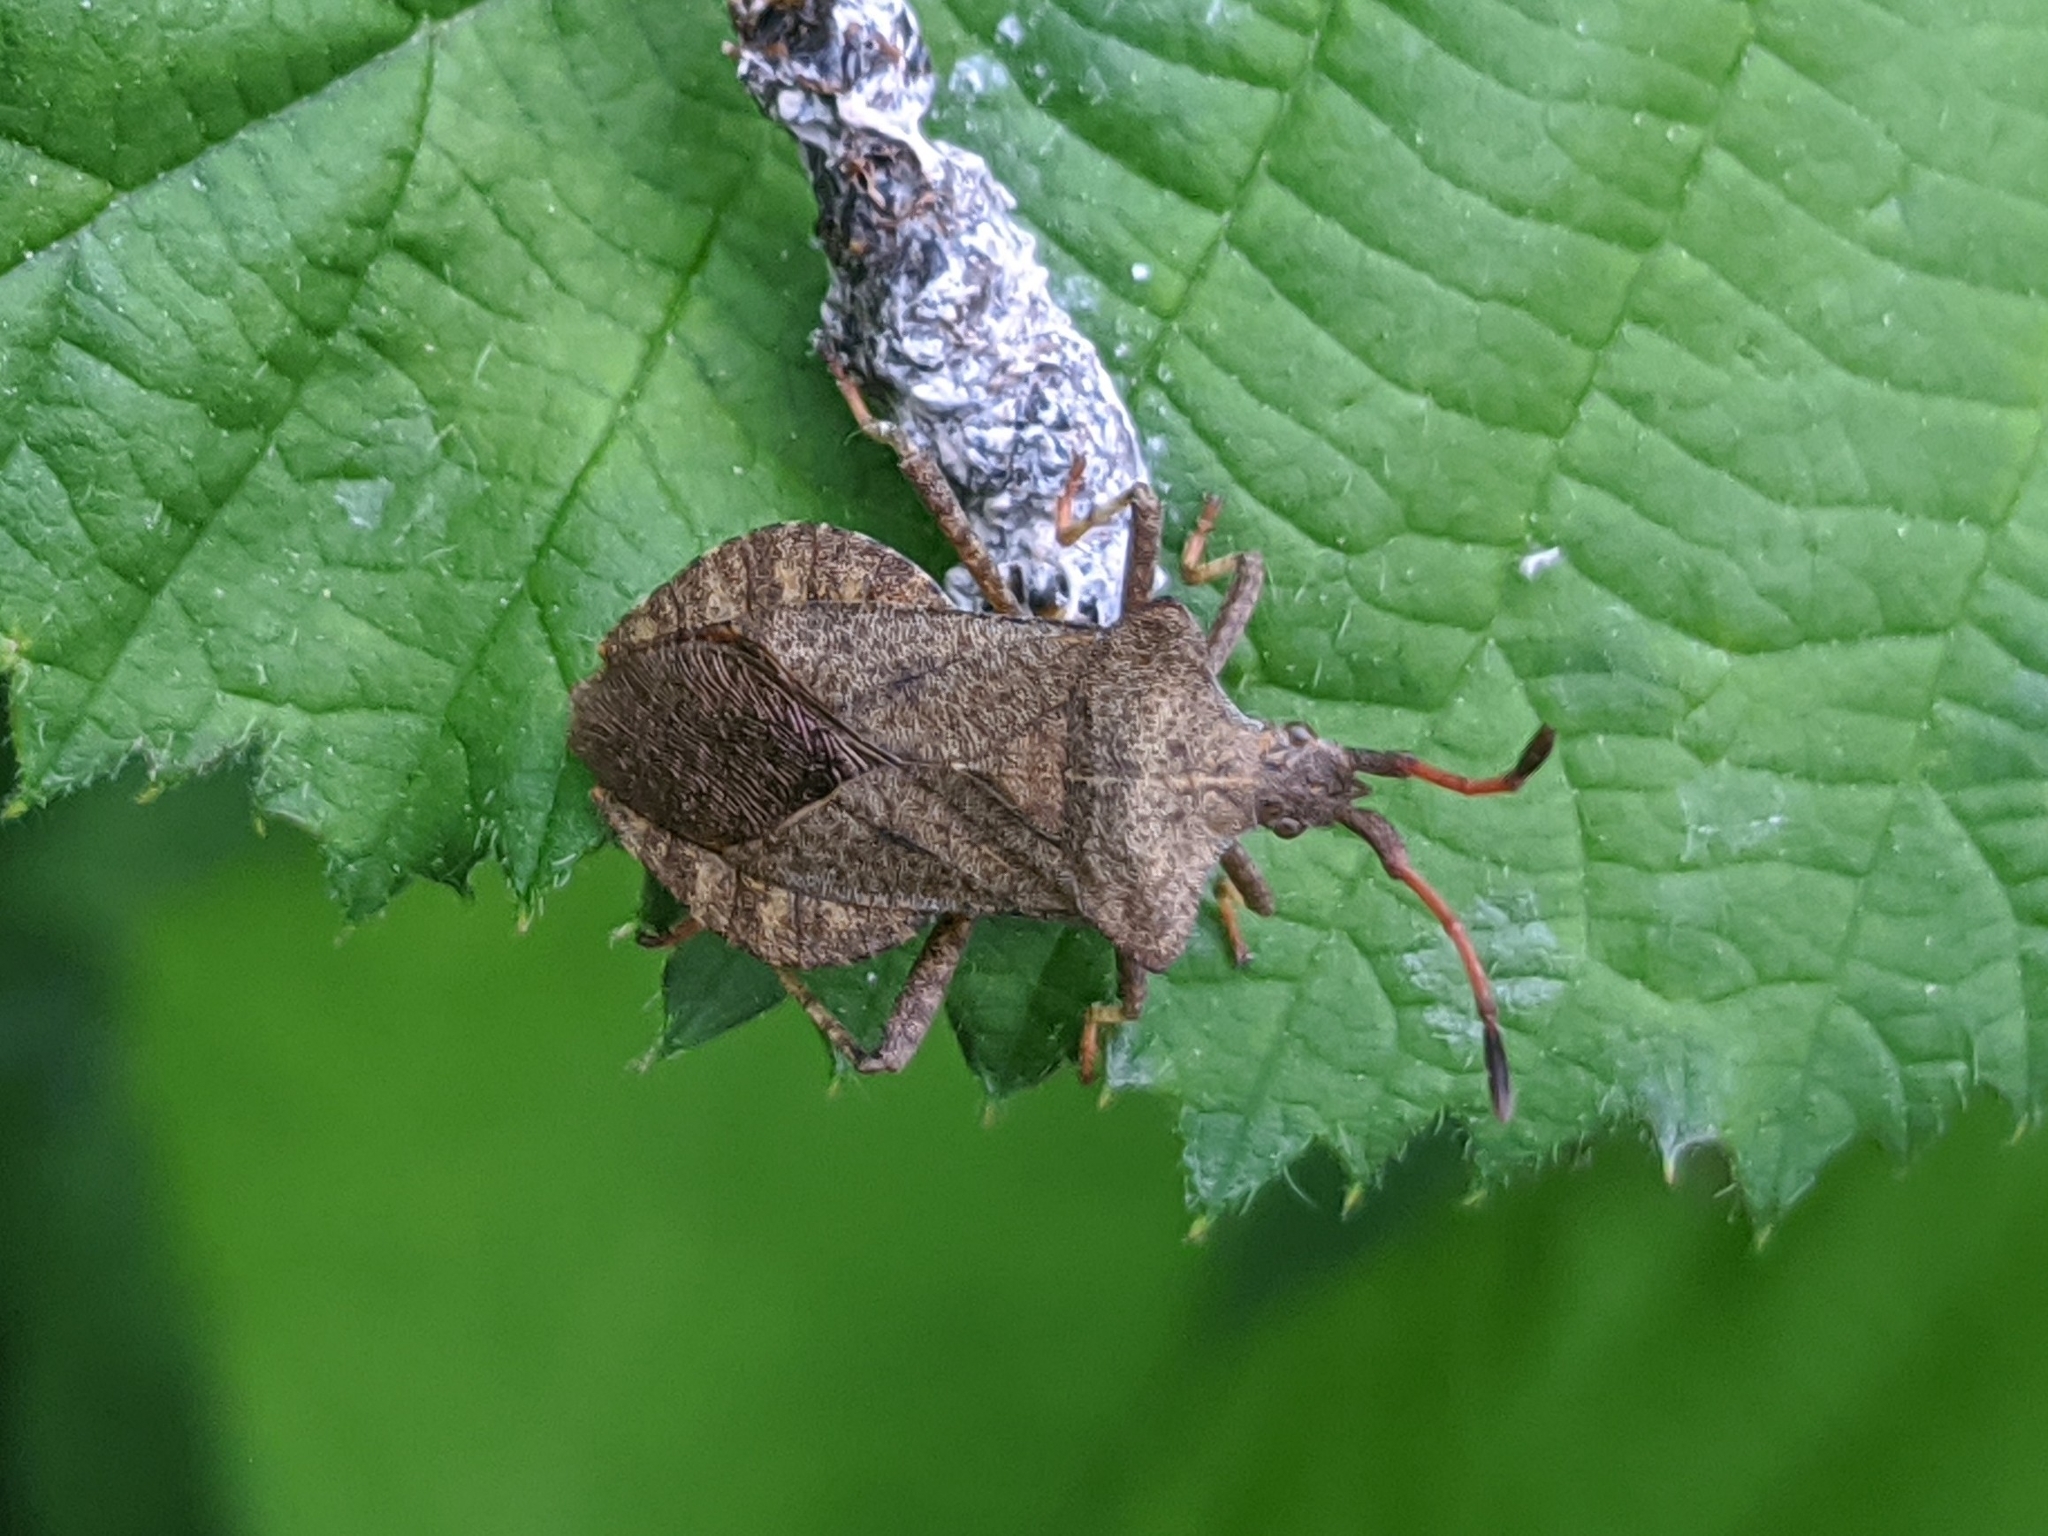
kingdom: Animalia
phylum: Arthropoda
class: Insecta
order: Hemiptera
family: Coreidae
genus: Coreus
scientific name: Coreus marginatus
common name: Dock bug
